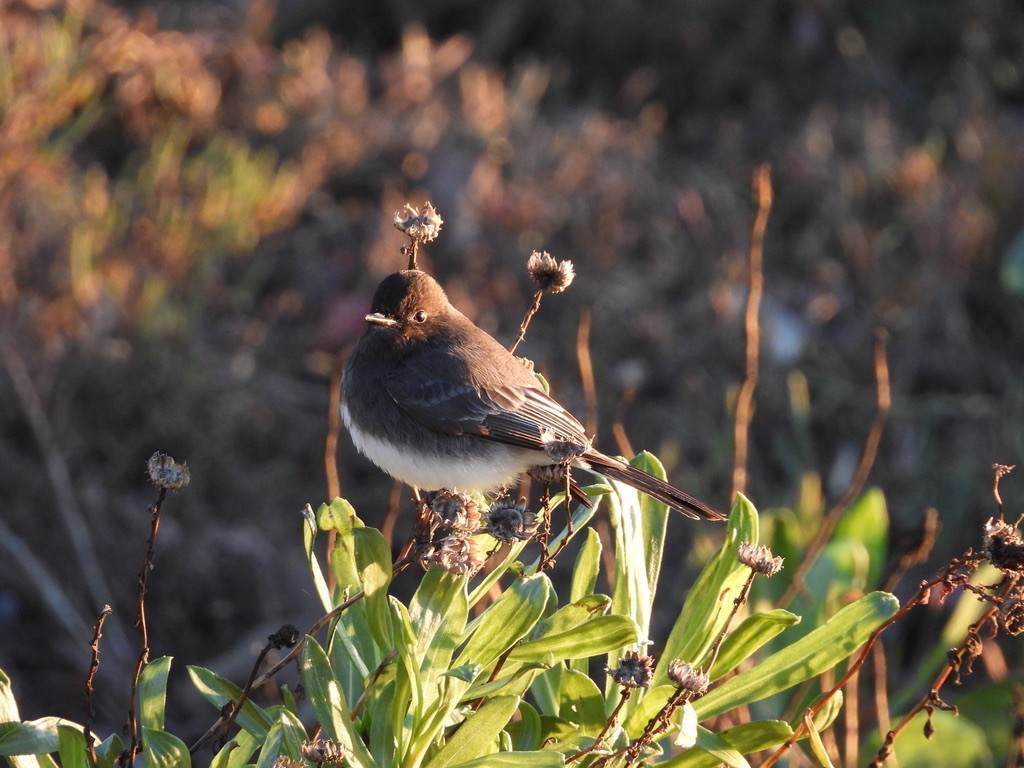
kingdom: Animalia
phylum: Chordata
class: Aves
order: Passeriformes
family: Tyrannidae
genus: Sayornis
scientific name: Sayornis nigricans
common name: Black phoebe
